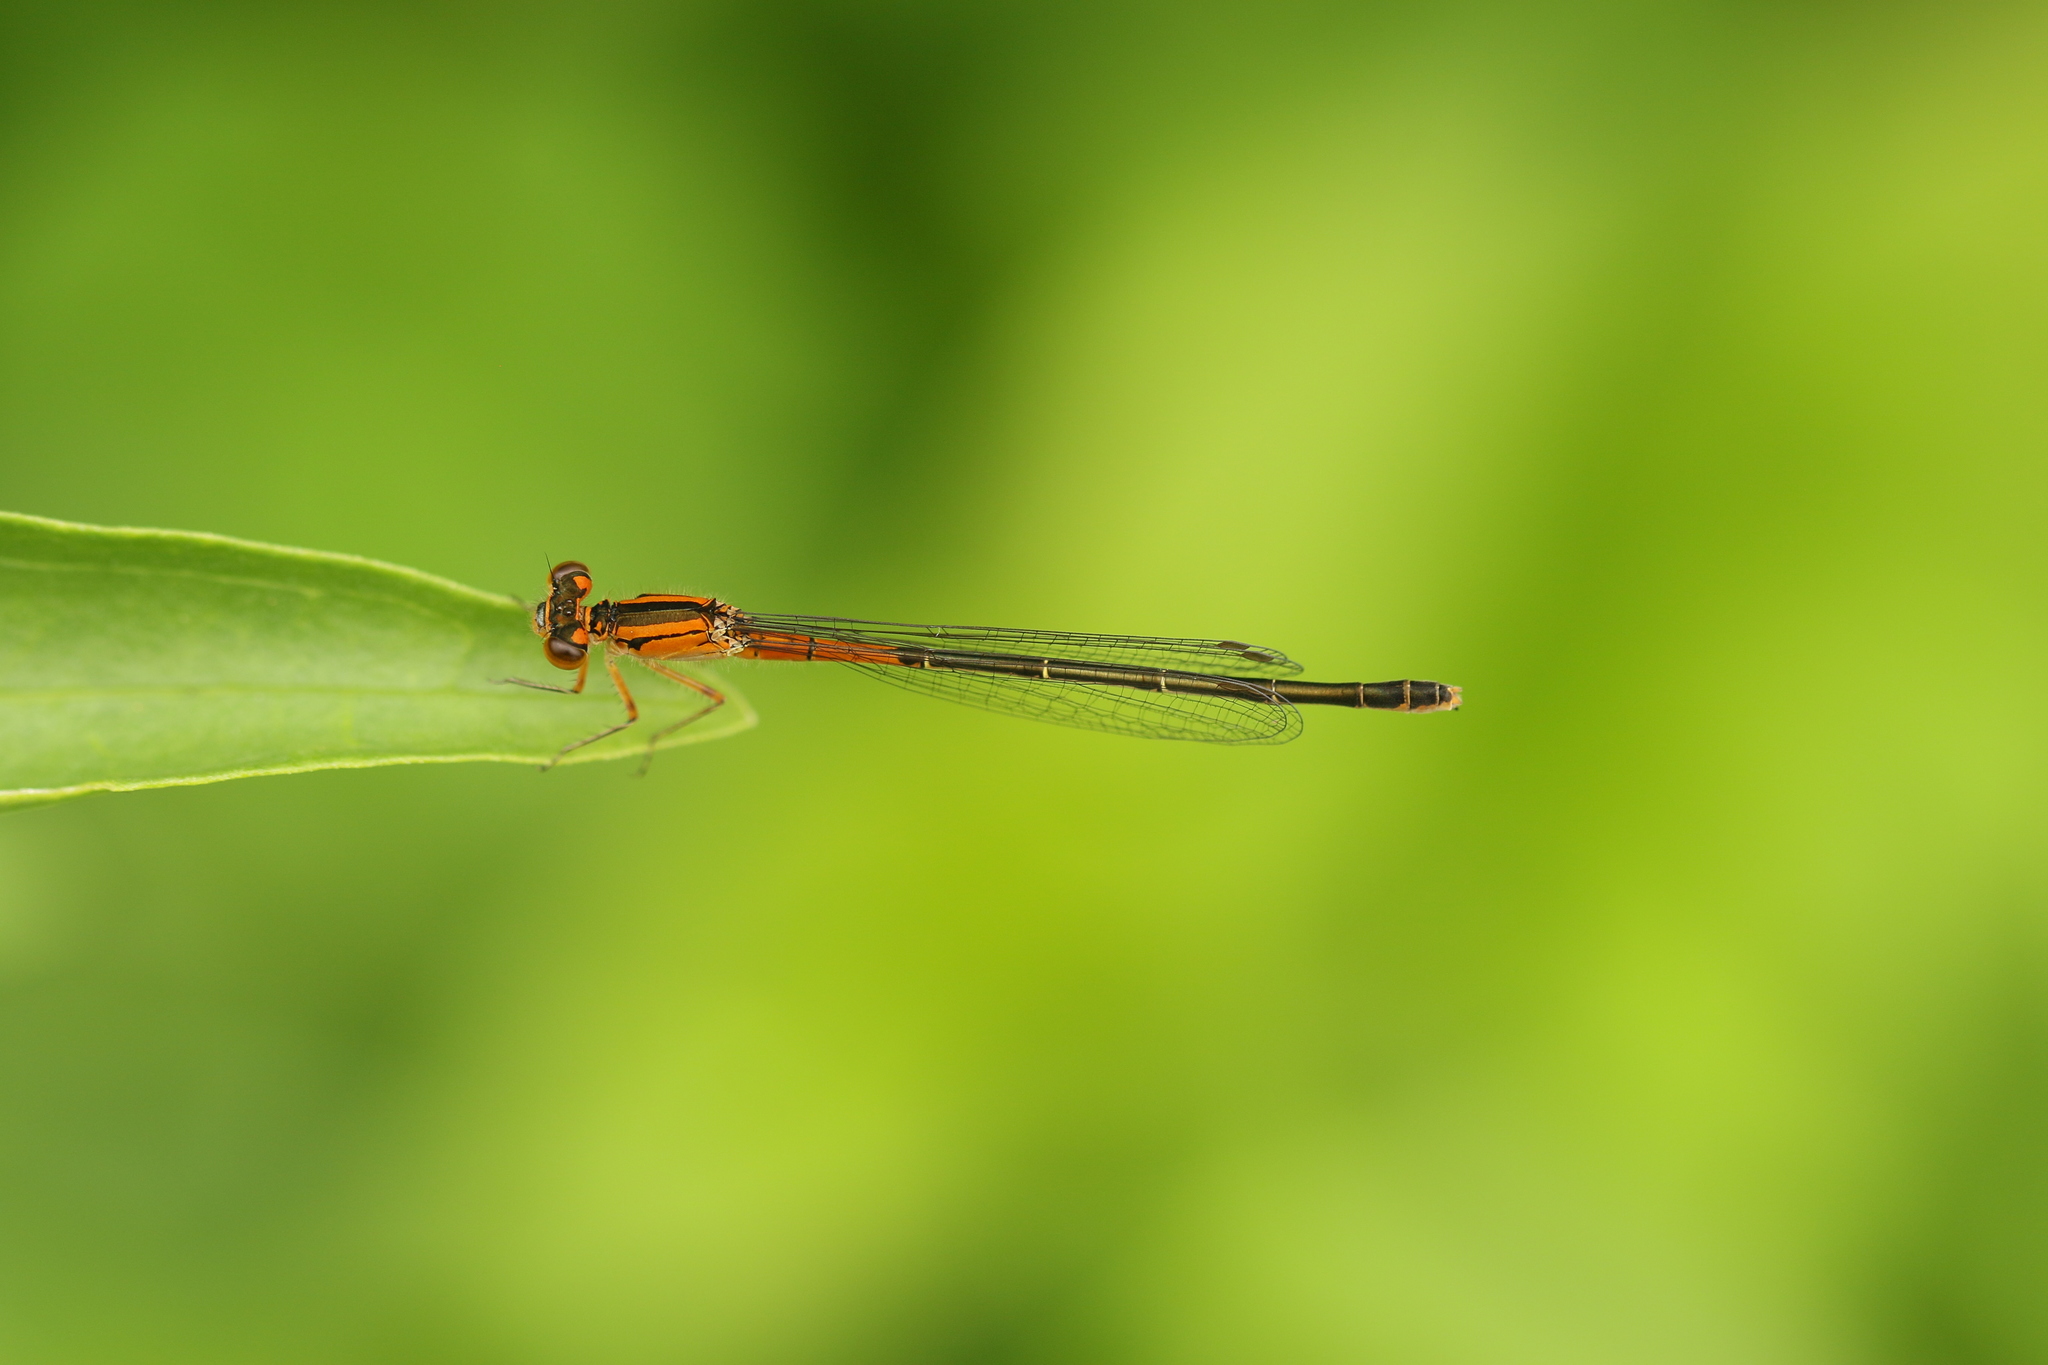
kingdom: Animalia
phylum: Arthropoda
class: Insecta
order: Odonata
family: Coenagrionidae
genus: Ischnura
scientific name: Ischnura verticalis
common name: Eastern forktail
